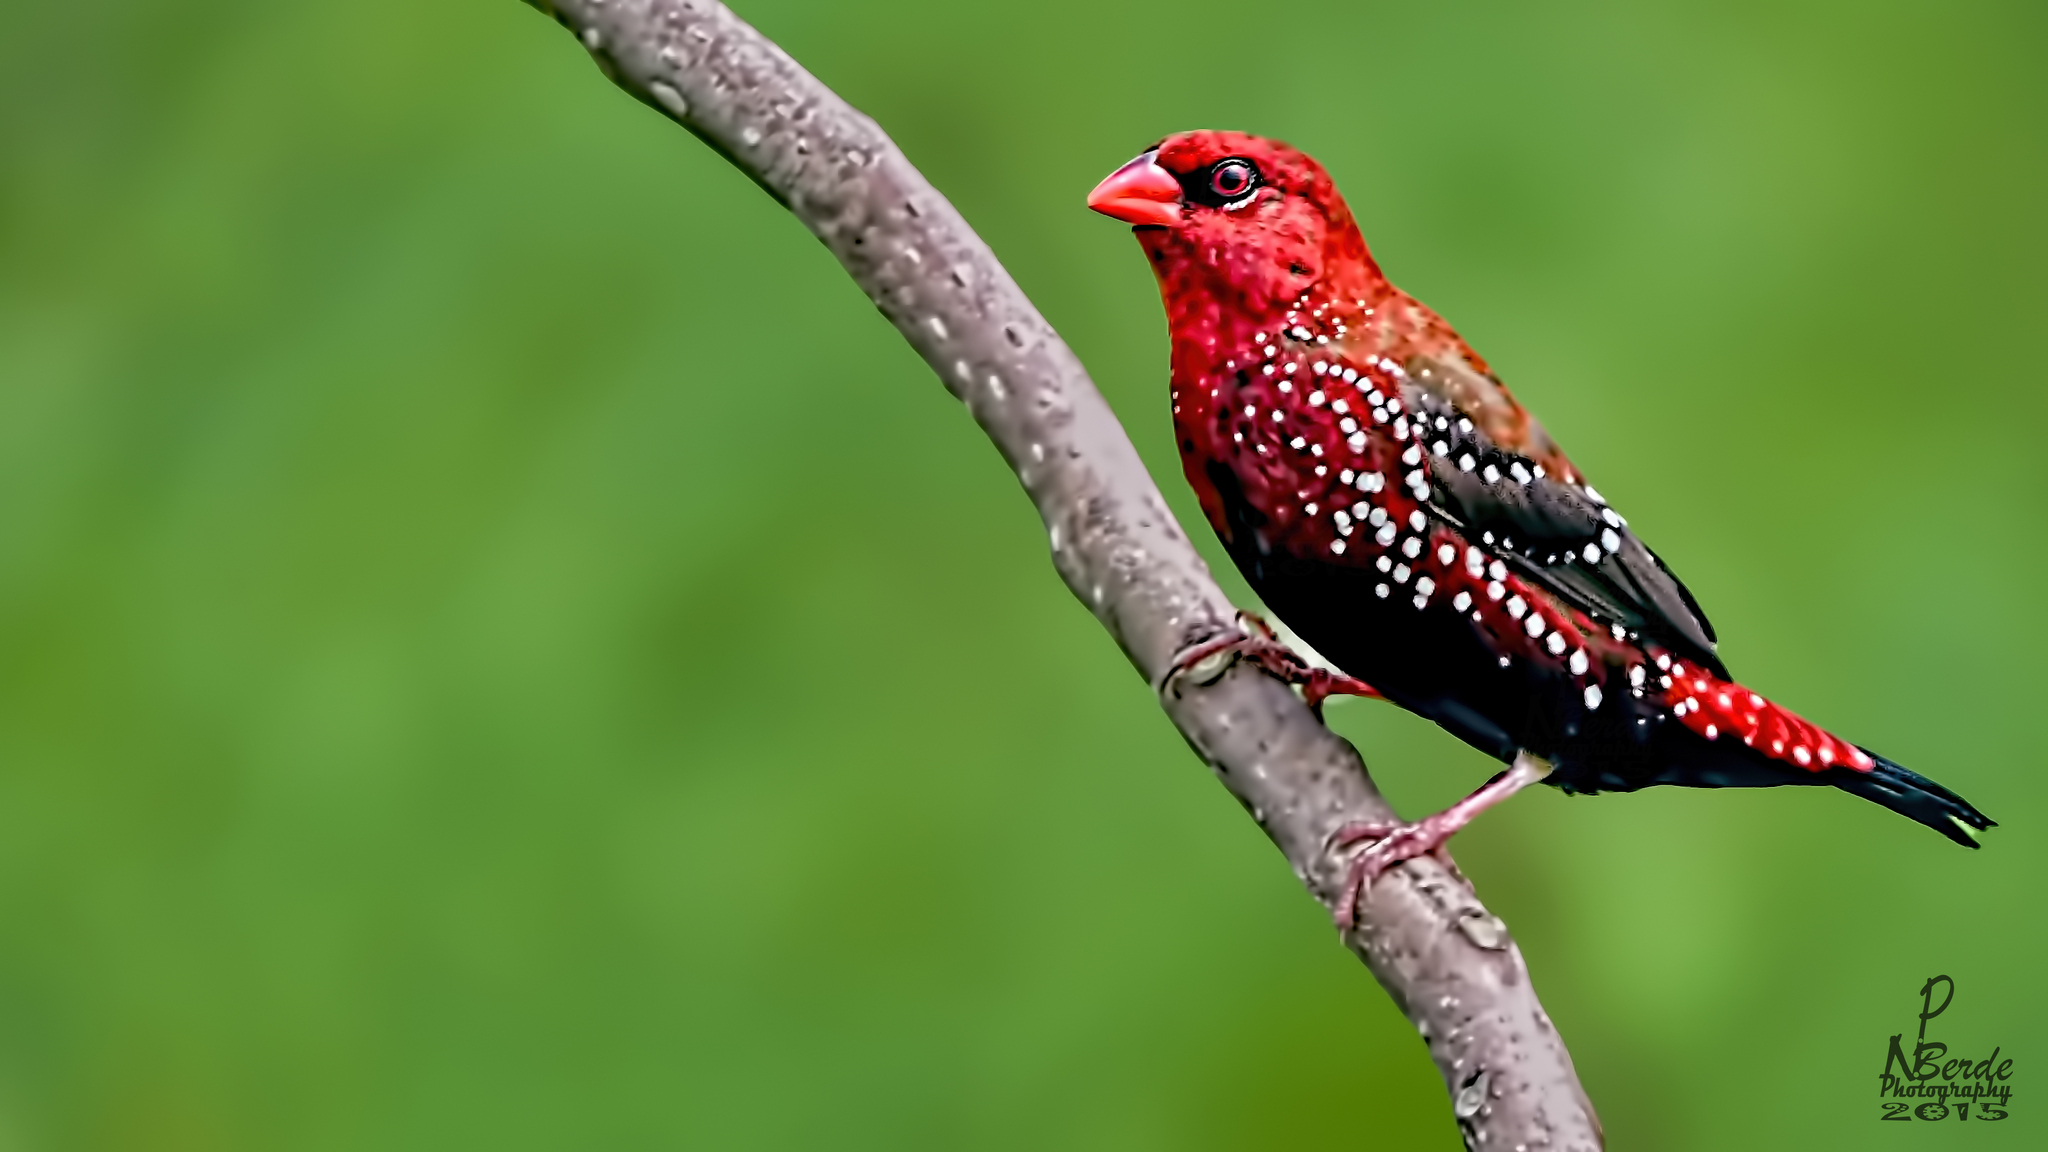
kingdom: Animalia
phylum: Chordata
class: Aves
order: Passeriformes
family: Estrildidae
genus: Amandava
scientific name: Amandava amandava
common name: Red avadavat
